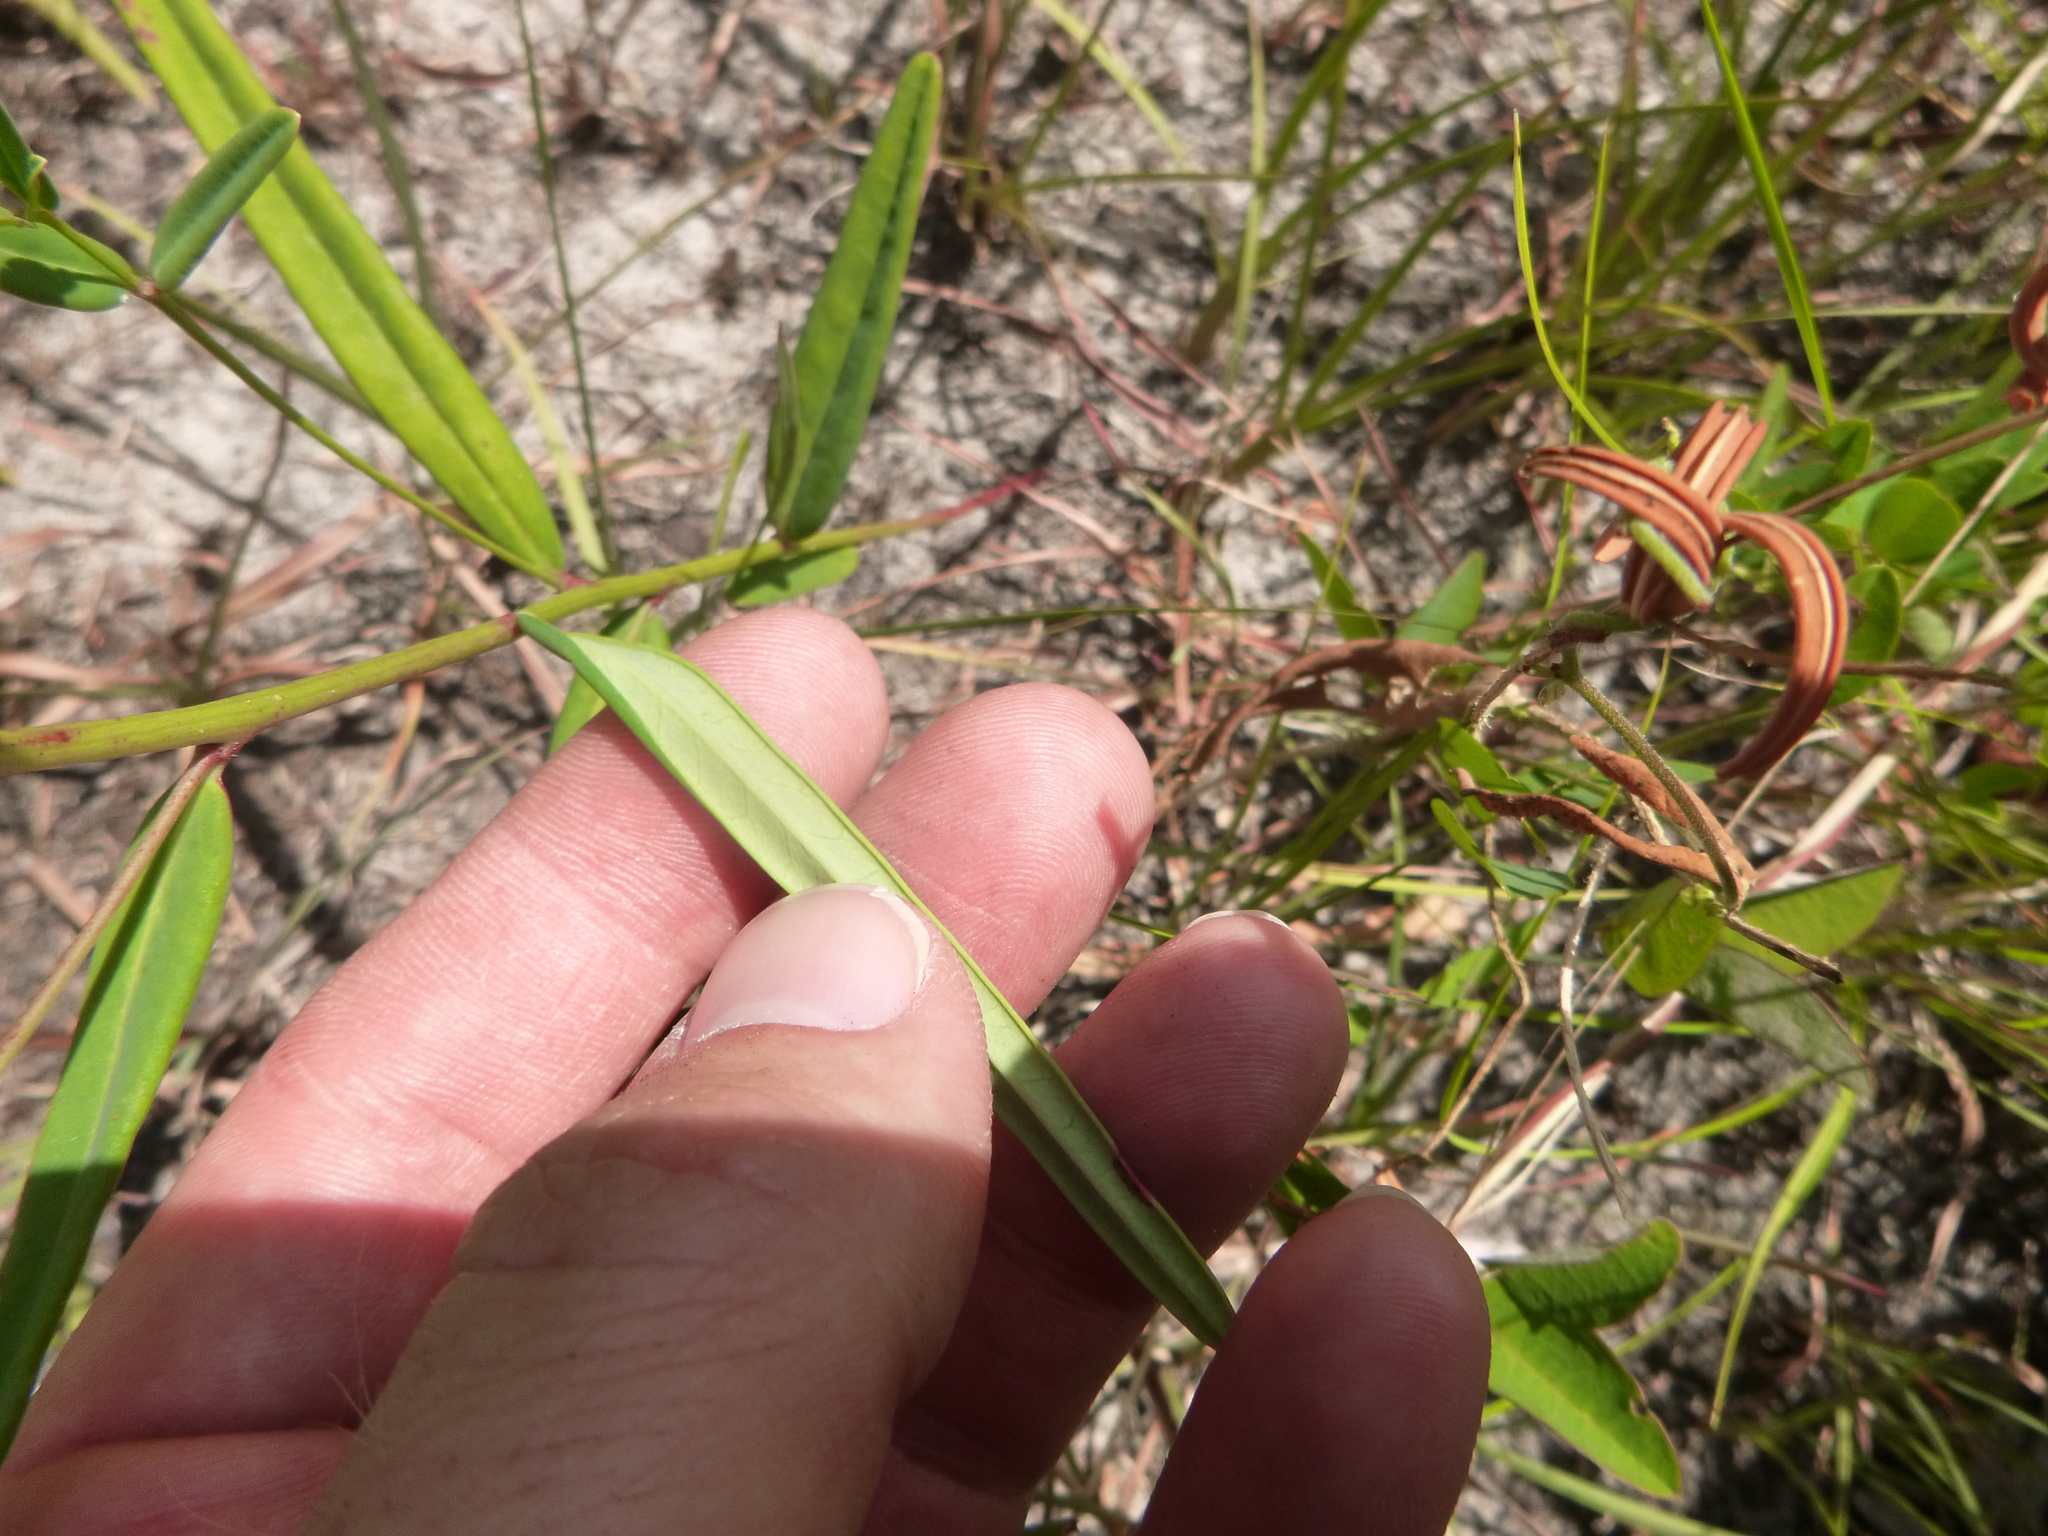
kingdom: Plantae
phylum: Tracheophyta
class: Magnoliopsida
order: Malpighiales
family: Euphorbiaceae
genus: Euphorbia
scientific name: Euphorbia discoidalis
